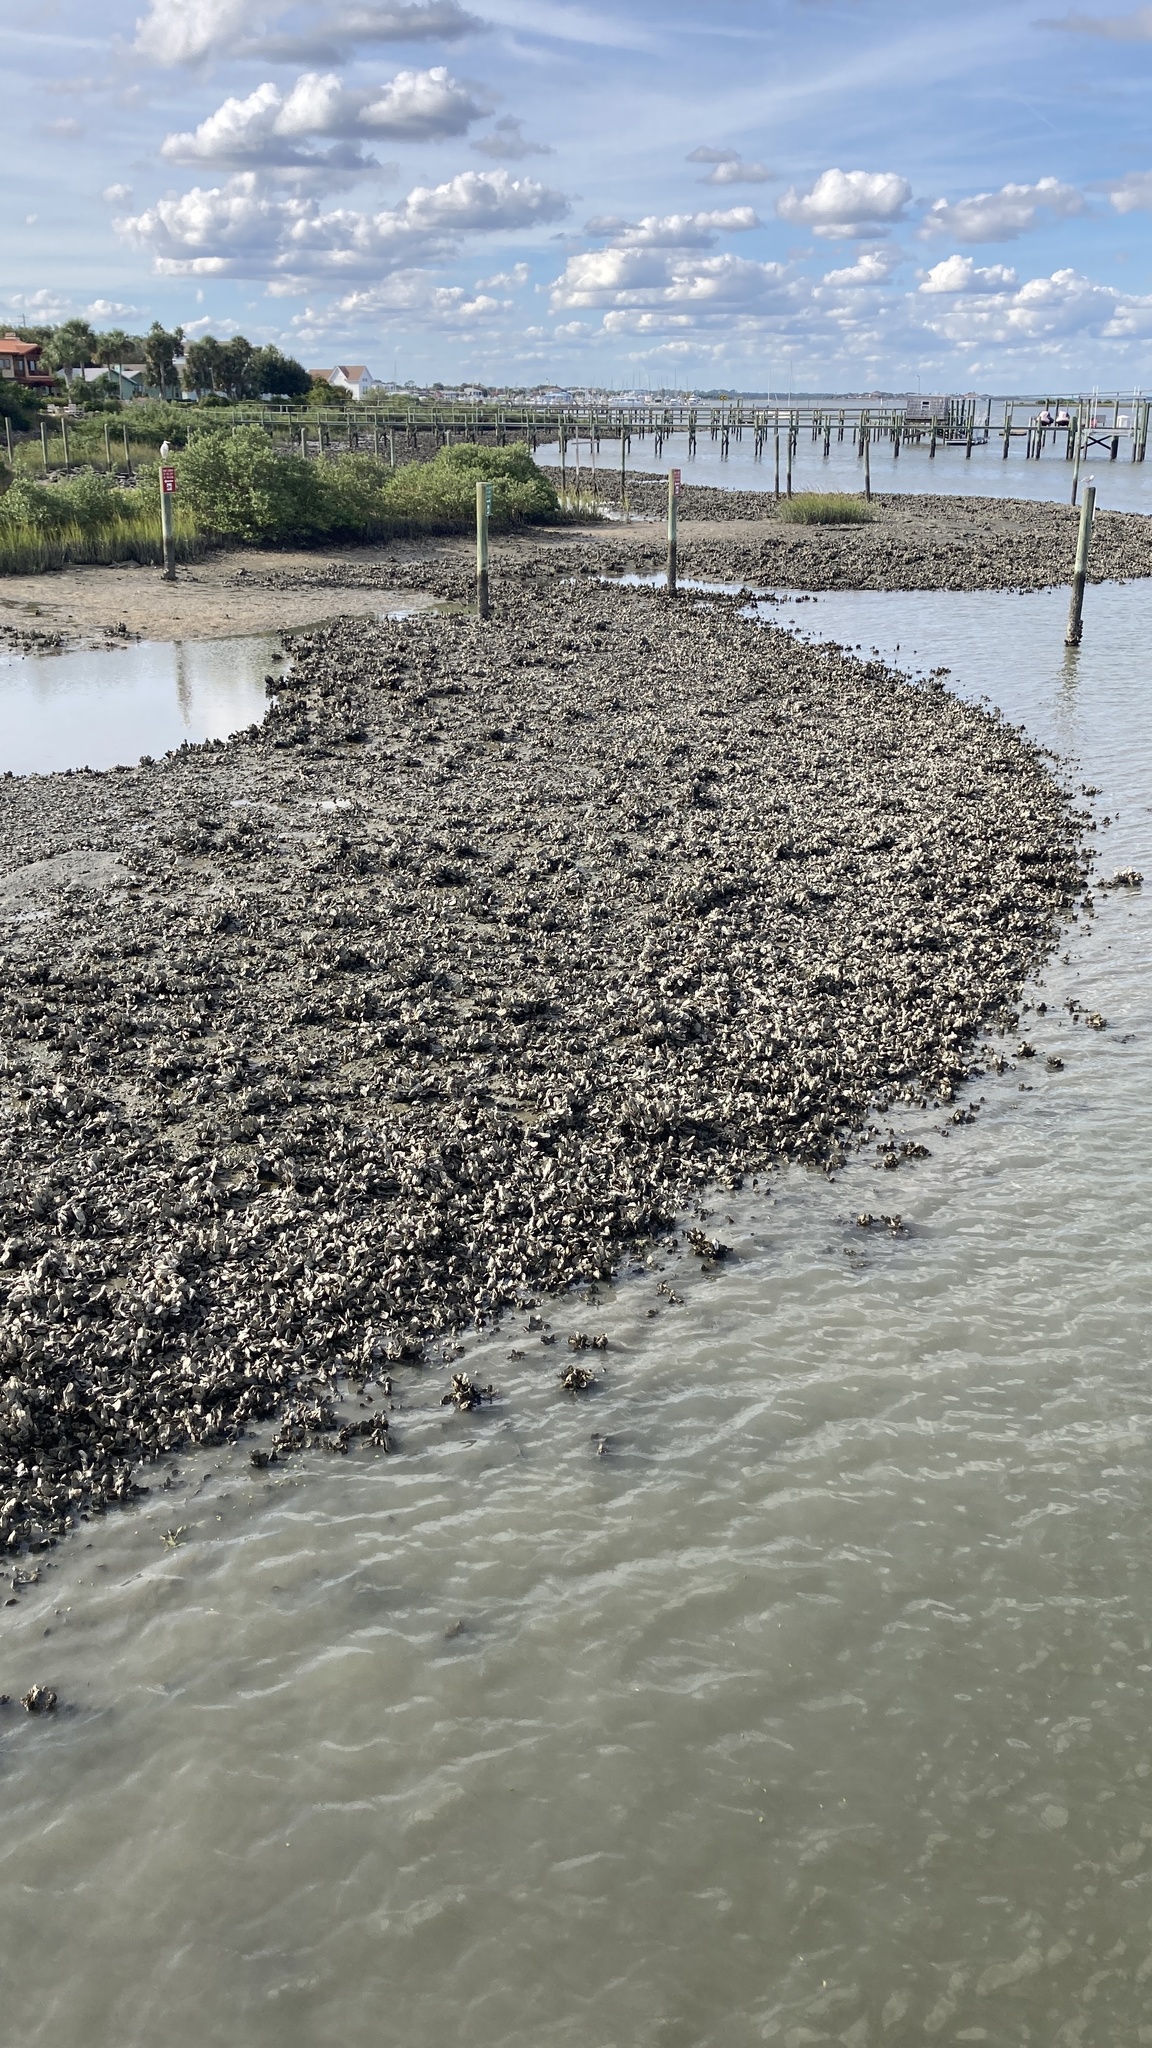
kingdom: Animalia
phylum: Mollusca
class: Bivalvia
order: Ostreida
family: Ostreidae
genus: Crassostrea
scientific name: Crassostrea virginica
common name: American oyster
